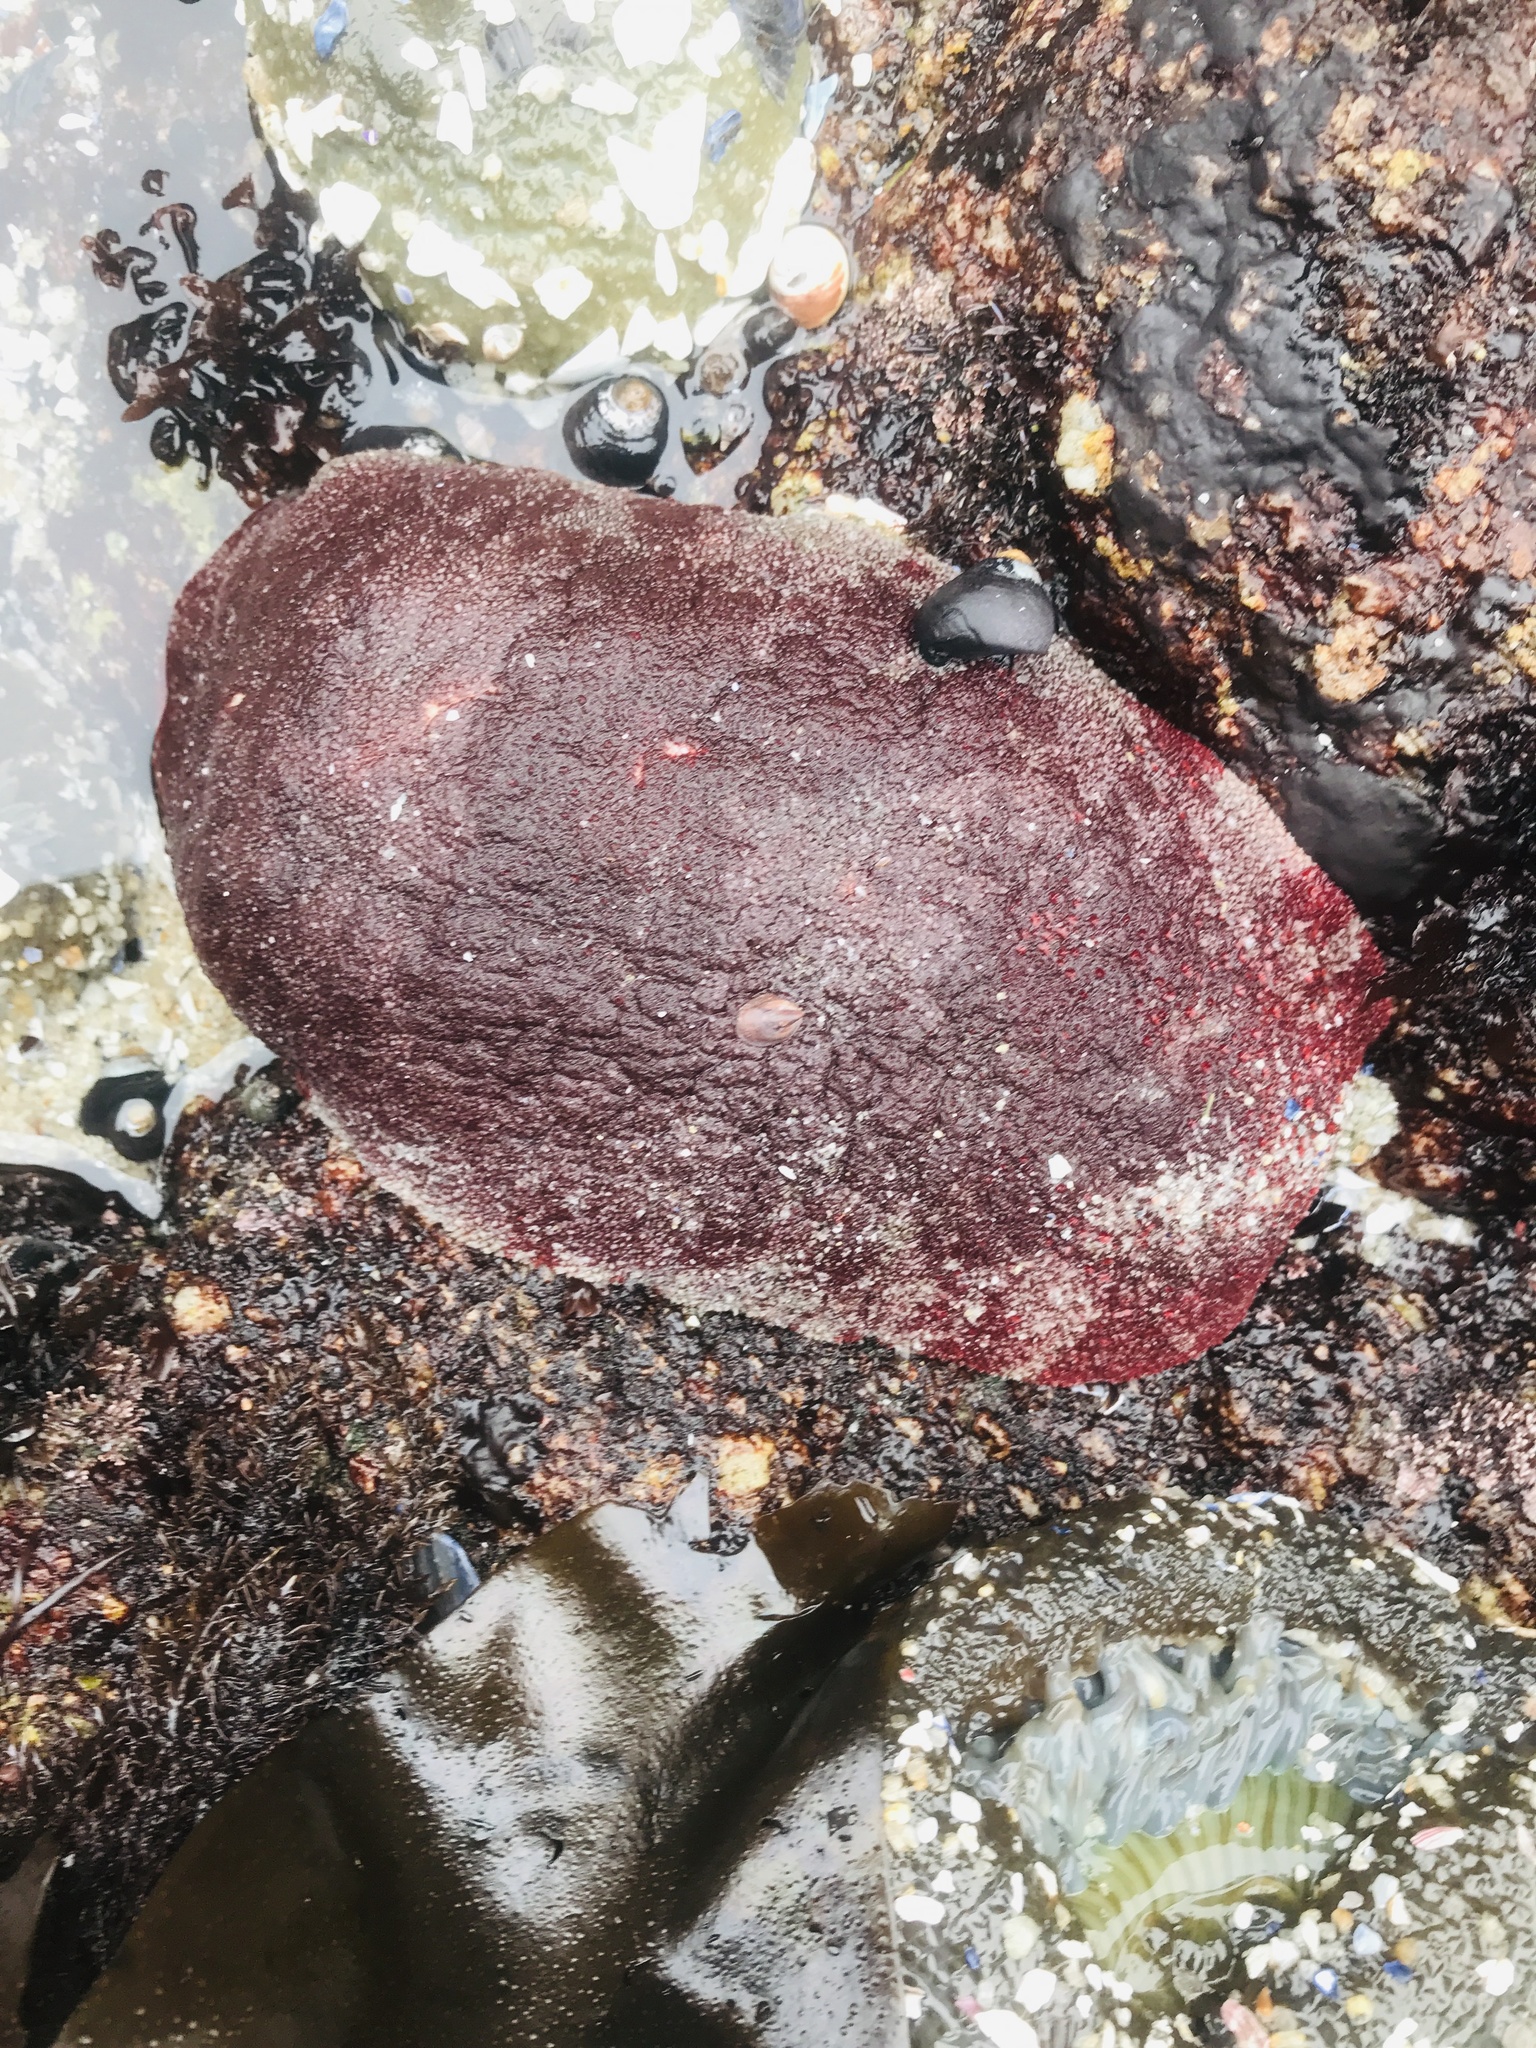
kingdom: Animalia
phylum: Mollusca
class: Polyplacophora
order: Chitonida
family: Acanthochitonidae
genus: Cryptochiton
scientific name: Cryptochiton stelleri
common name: Giant pacific chiton
